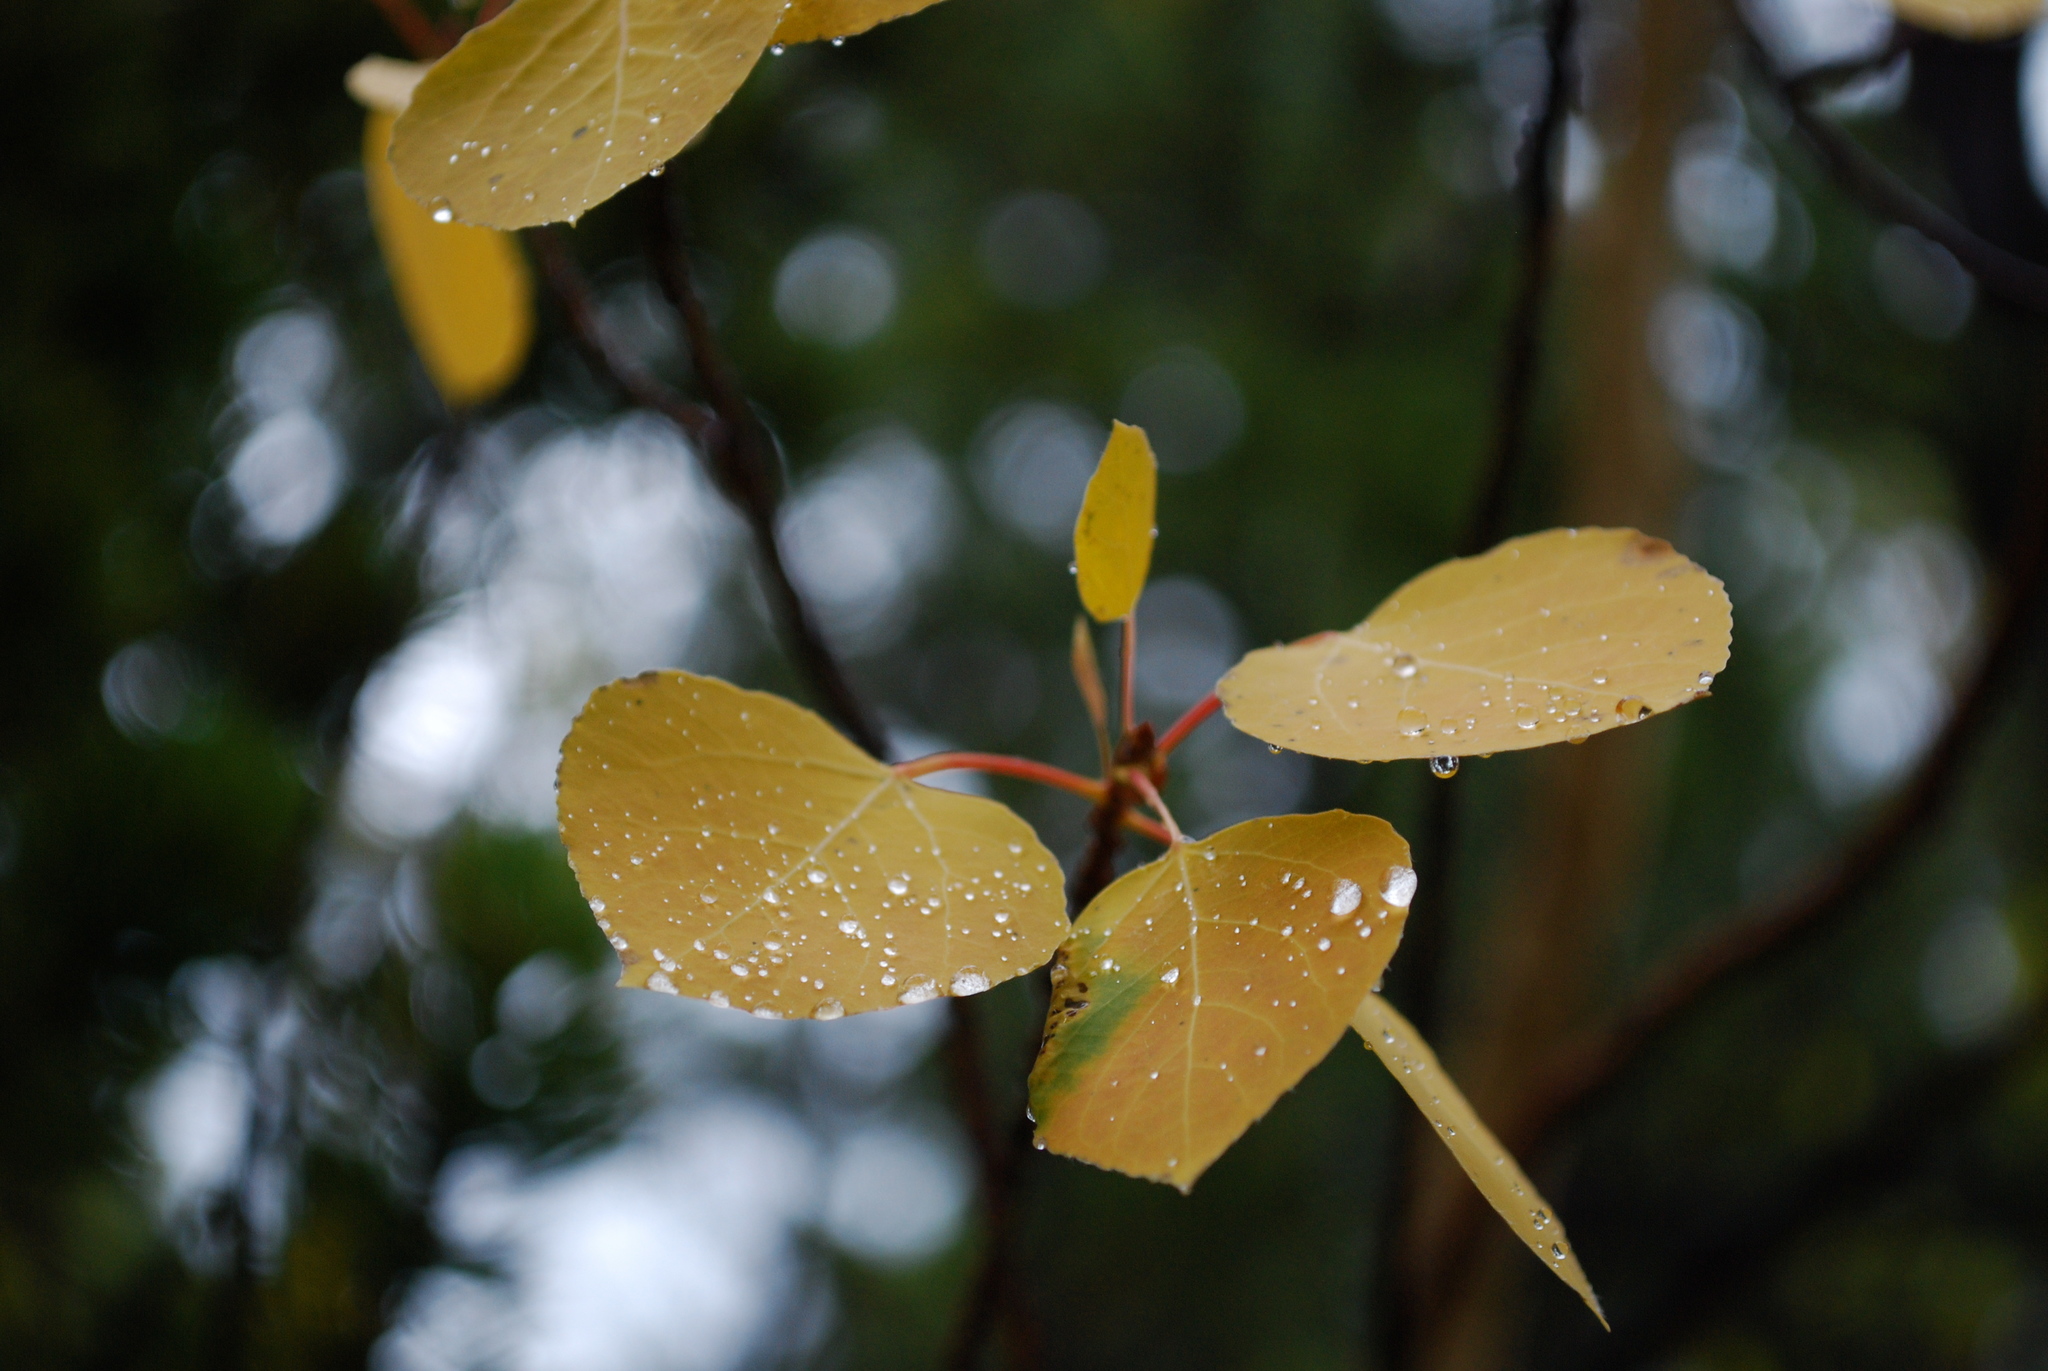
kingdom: Plantae
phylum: Tracheophyta
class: Magnoliopsida
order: Malpighiales
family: Salicaceae
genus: Populus
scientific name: Populus tremuloides
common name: Quaking aspen
